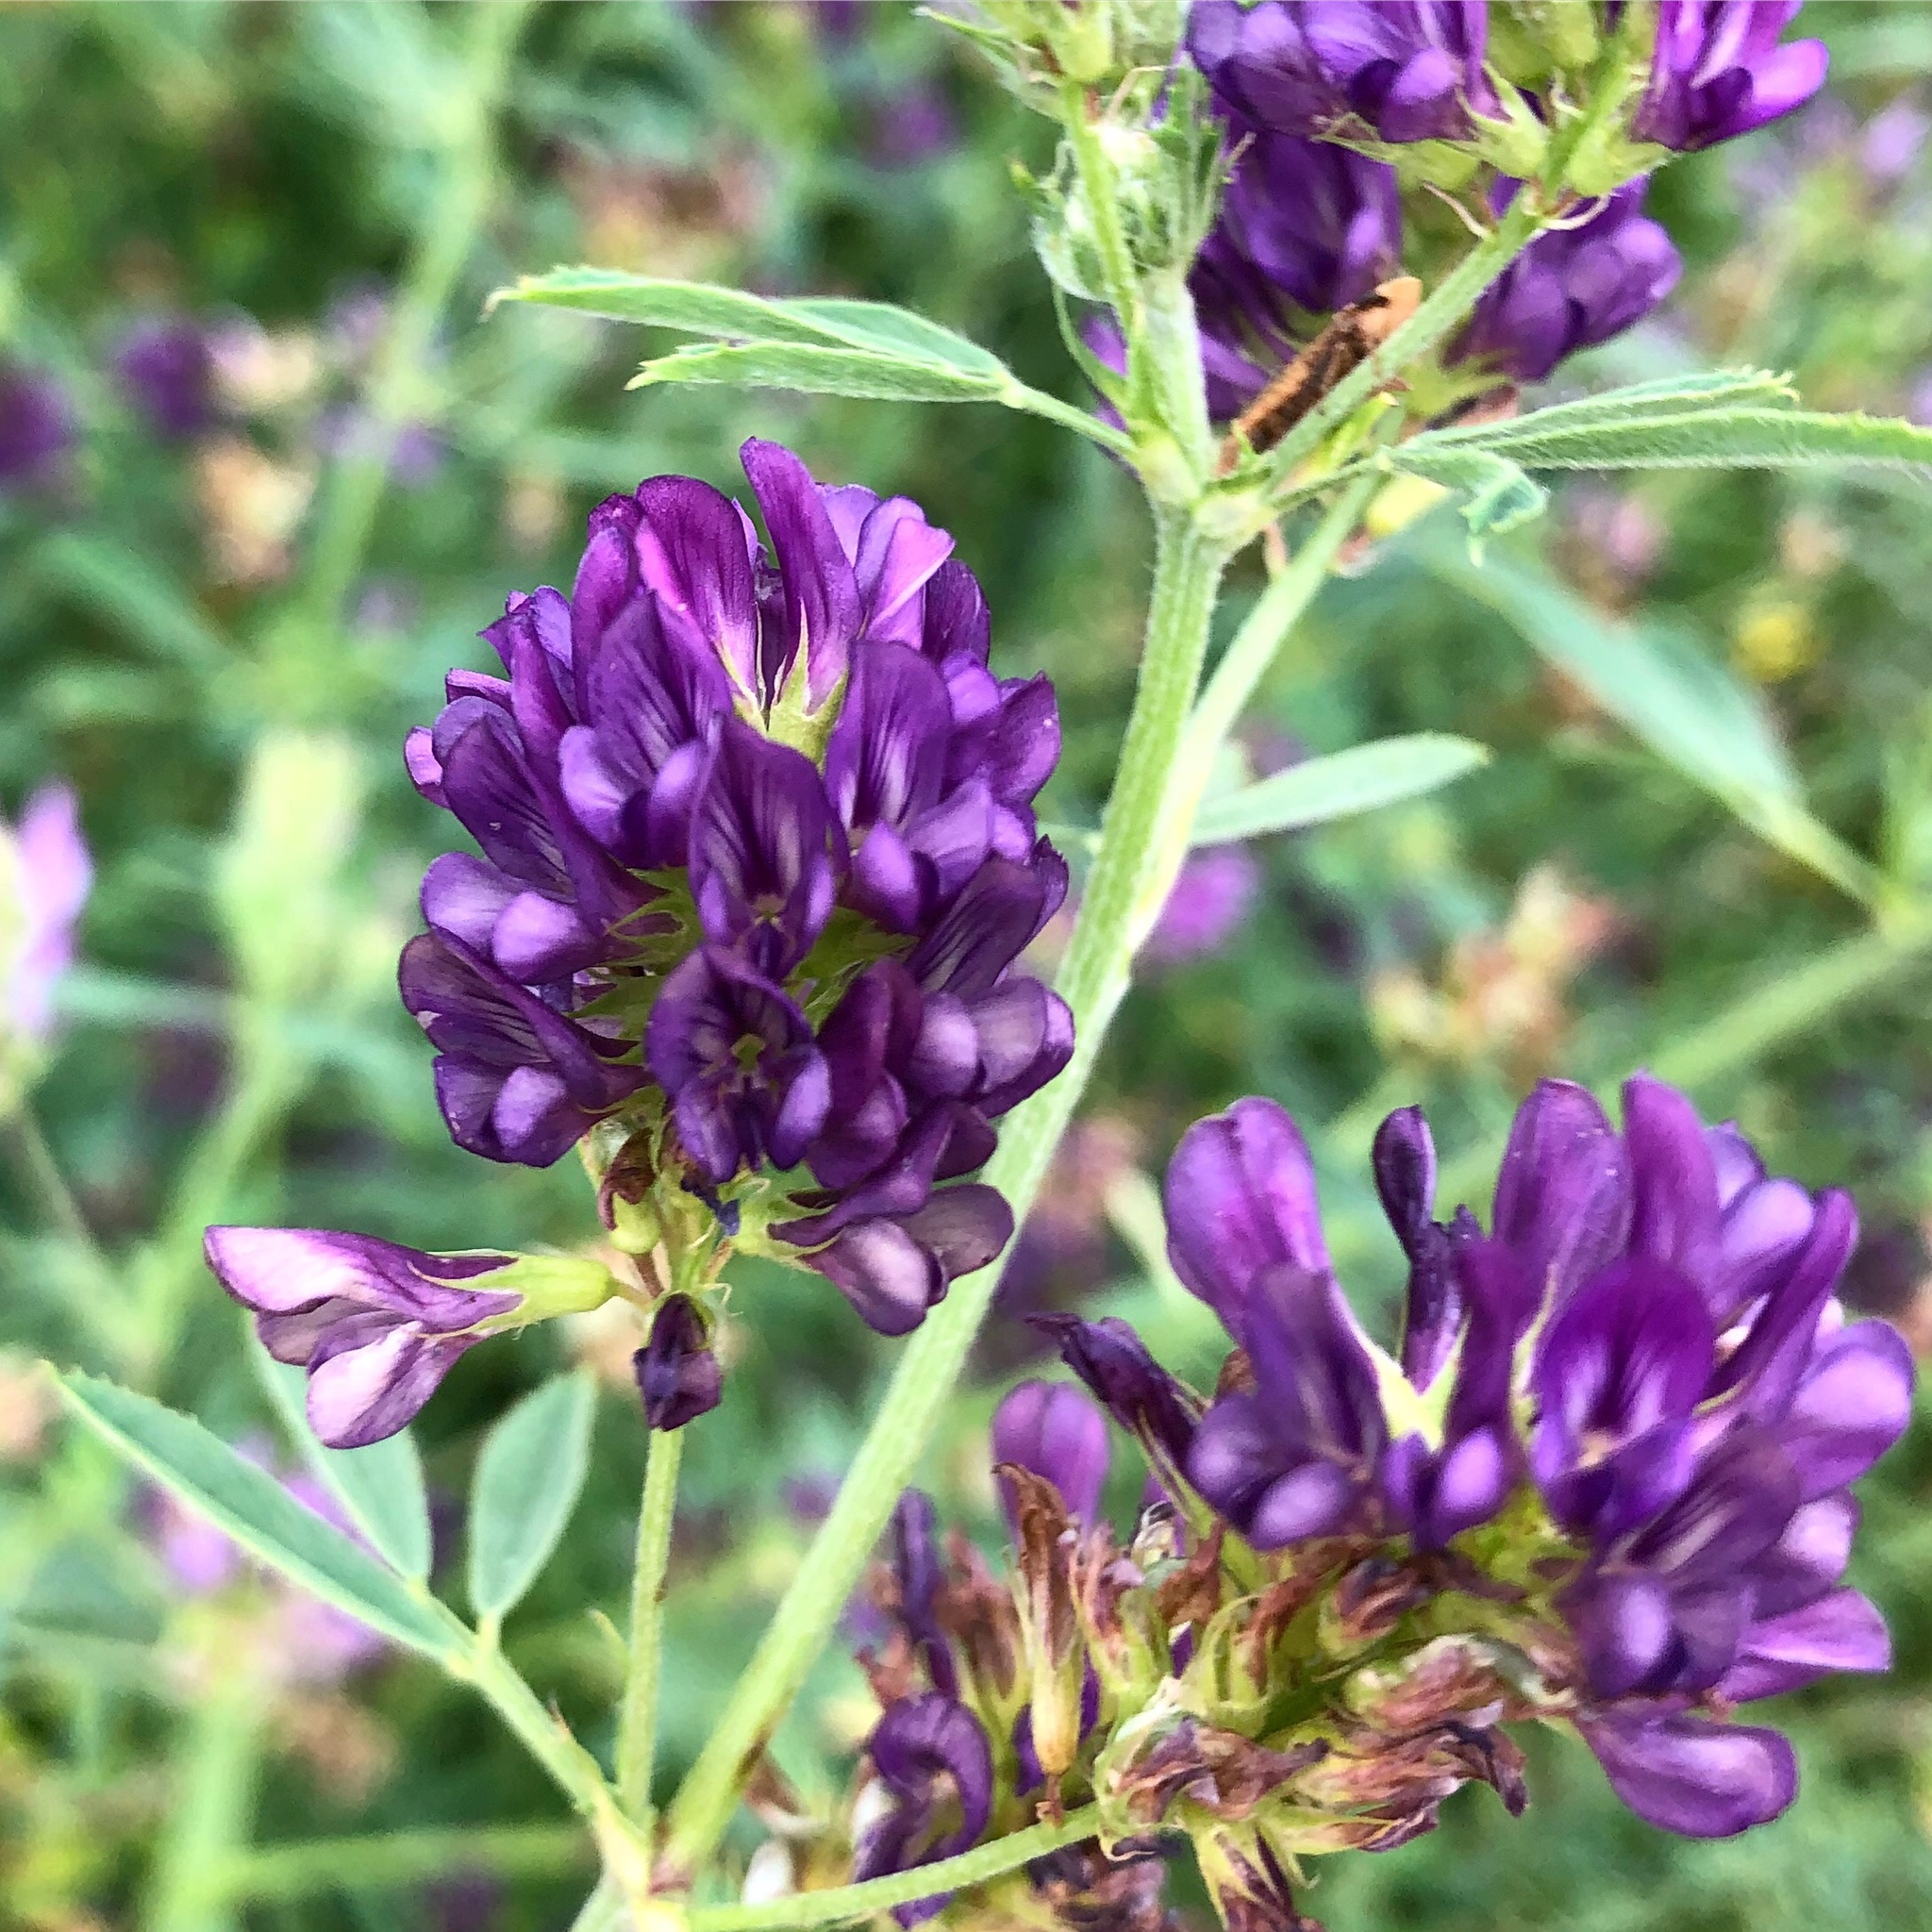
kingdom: Plantae
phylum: Tracheophyta
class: Magnoliopsida
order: Fabales
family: Fabaceae
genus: Medicago
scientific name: Medicago sativa
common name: Alfalfa
